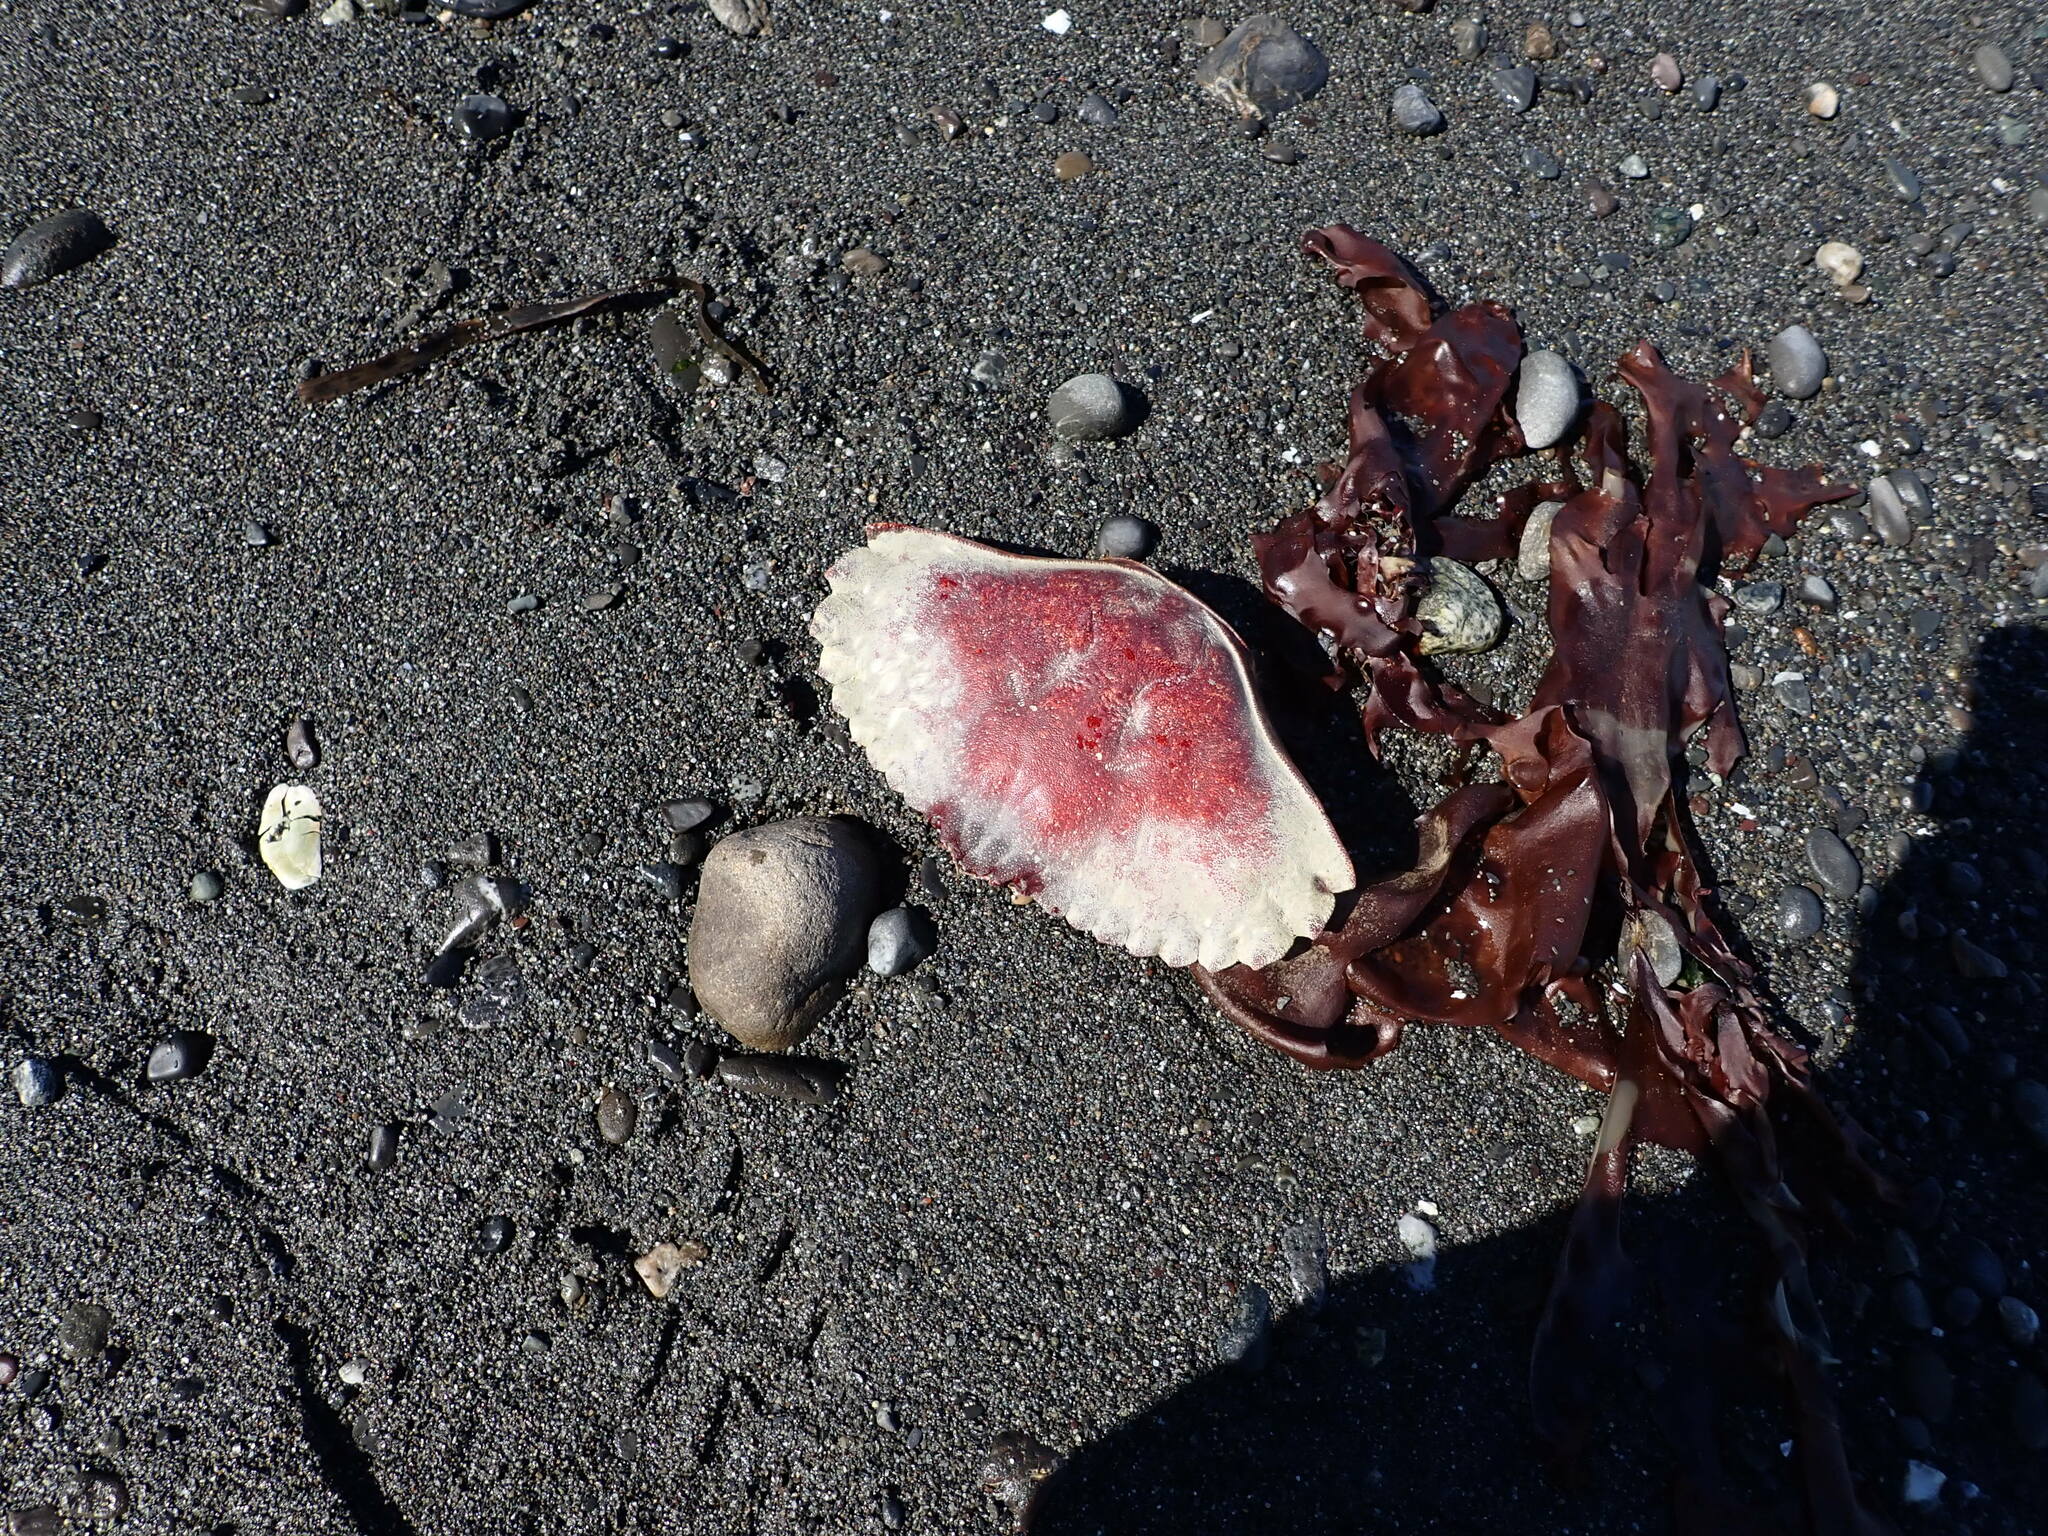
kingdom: Animalia
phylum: Arthropoda
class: Malacostraca
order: Decapoda
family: Cancridae
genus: Cancer
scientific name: Cancer productus
